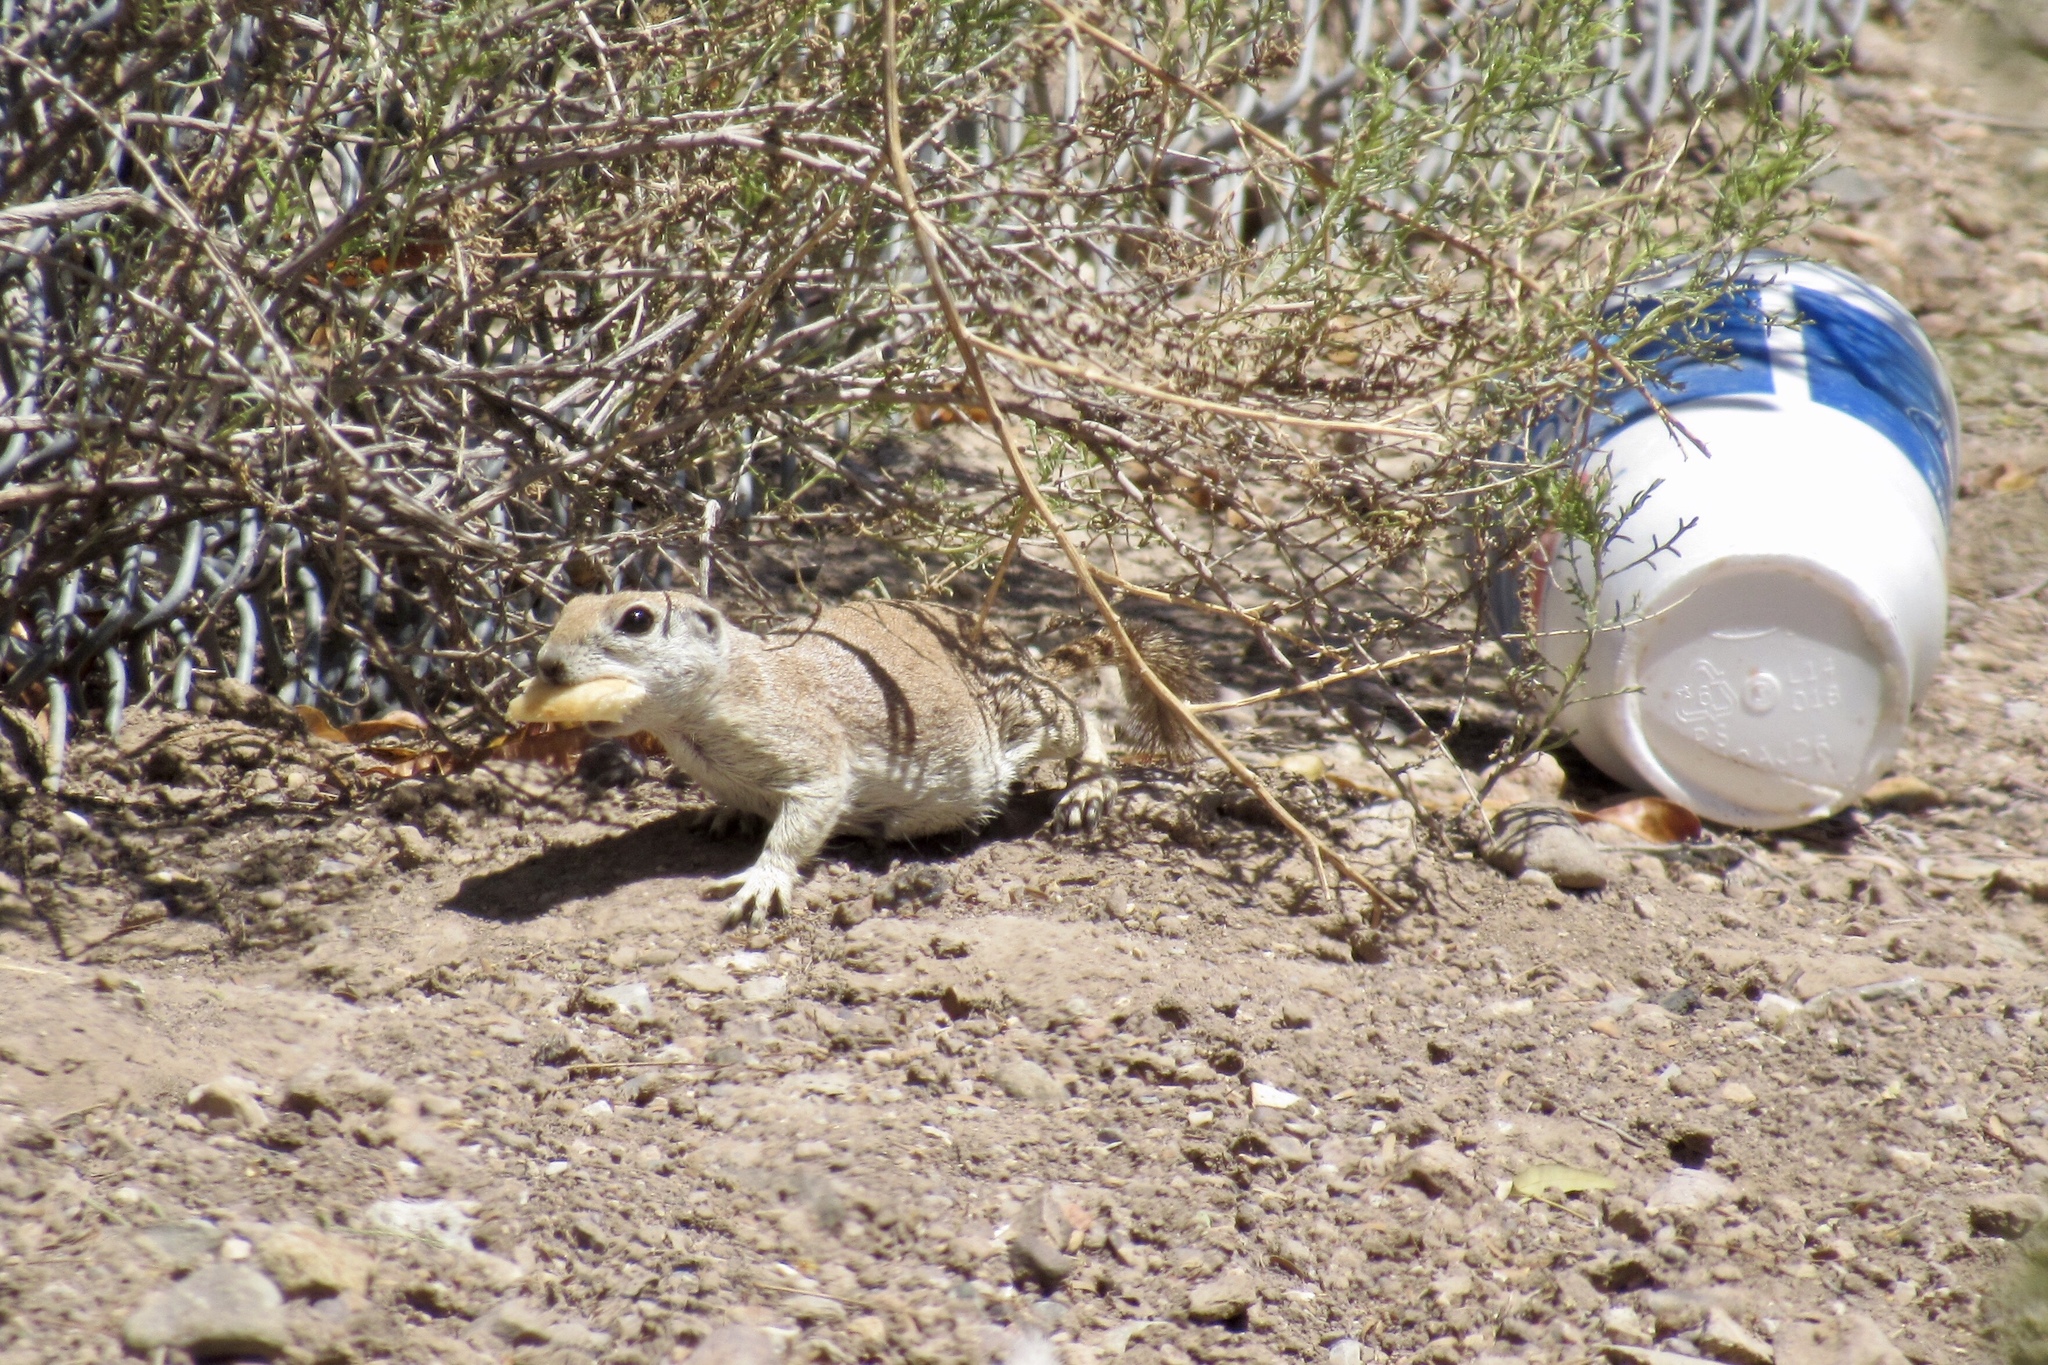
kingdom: Animalia
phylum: Chordata
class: Mammalia
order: Rodentia
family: Sciuridae
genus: Xerospermophilus
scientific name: Xerospermophilus tereticaudus
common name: Round-tailed ground squirrel
